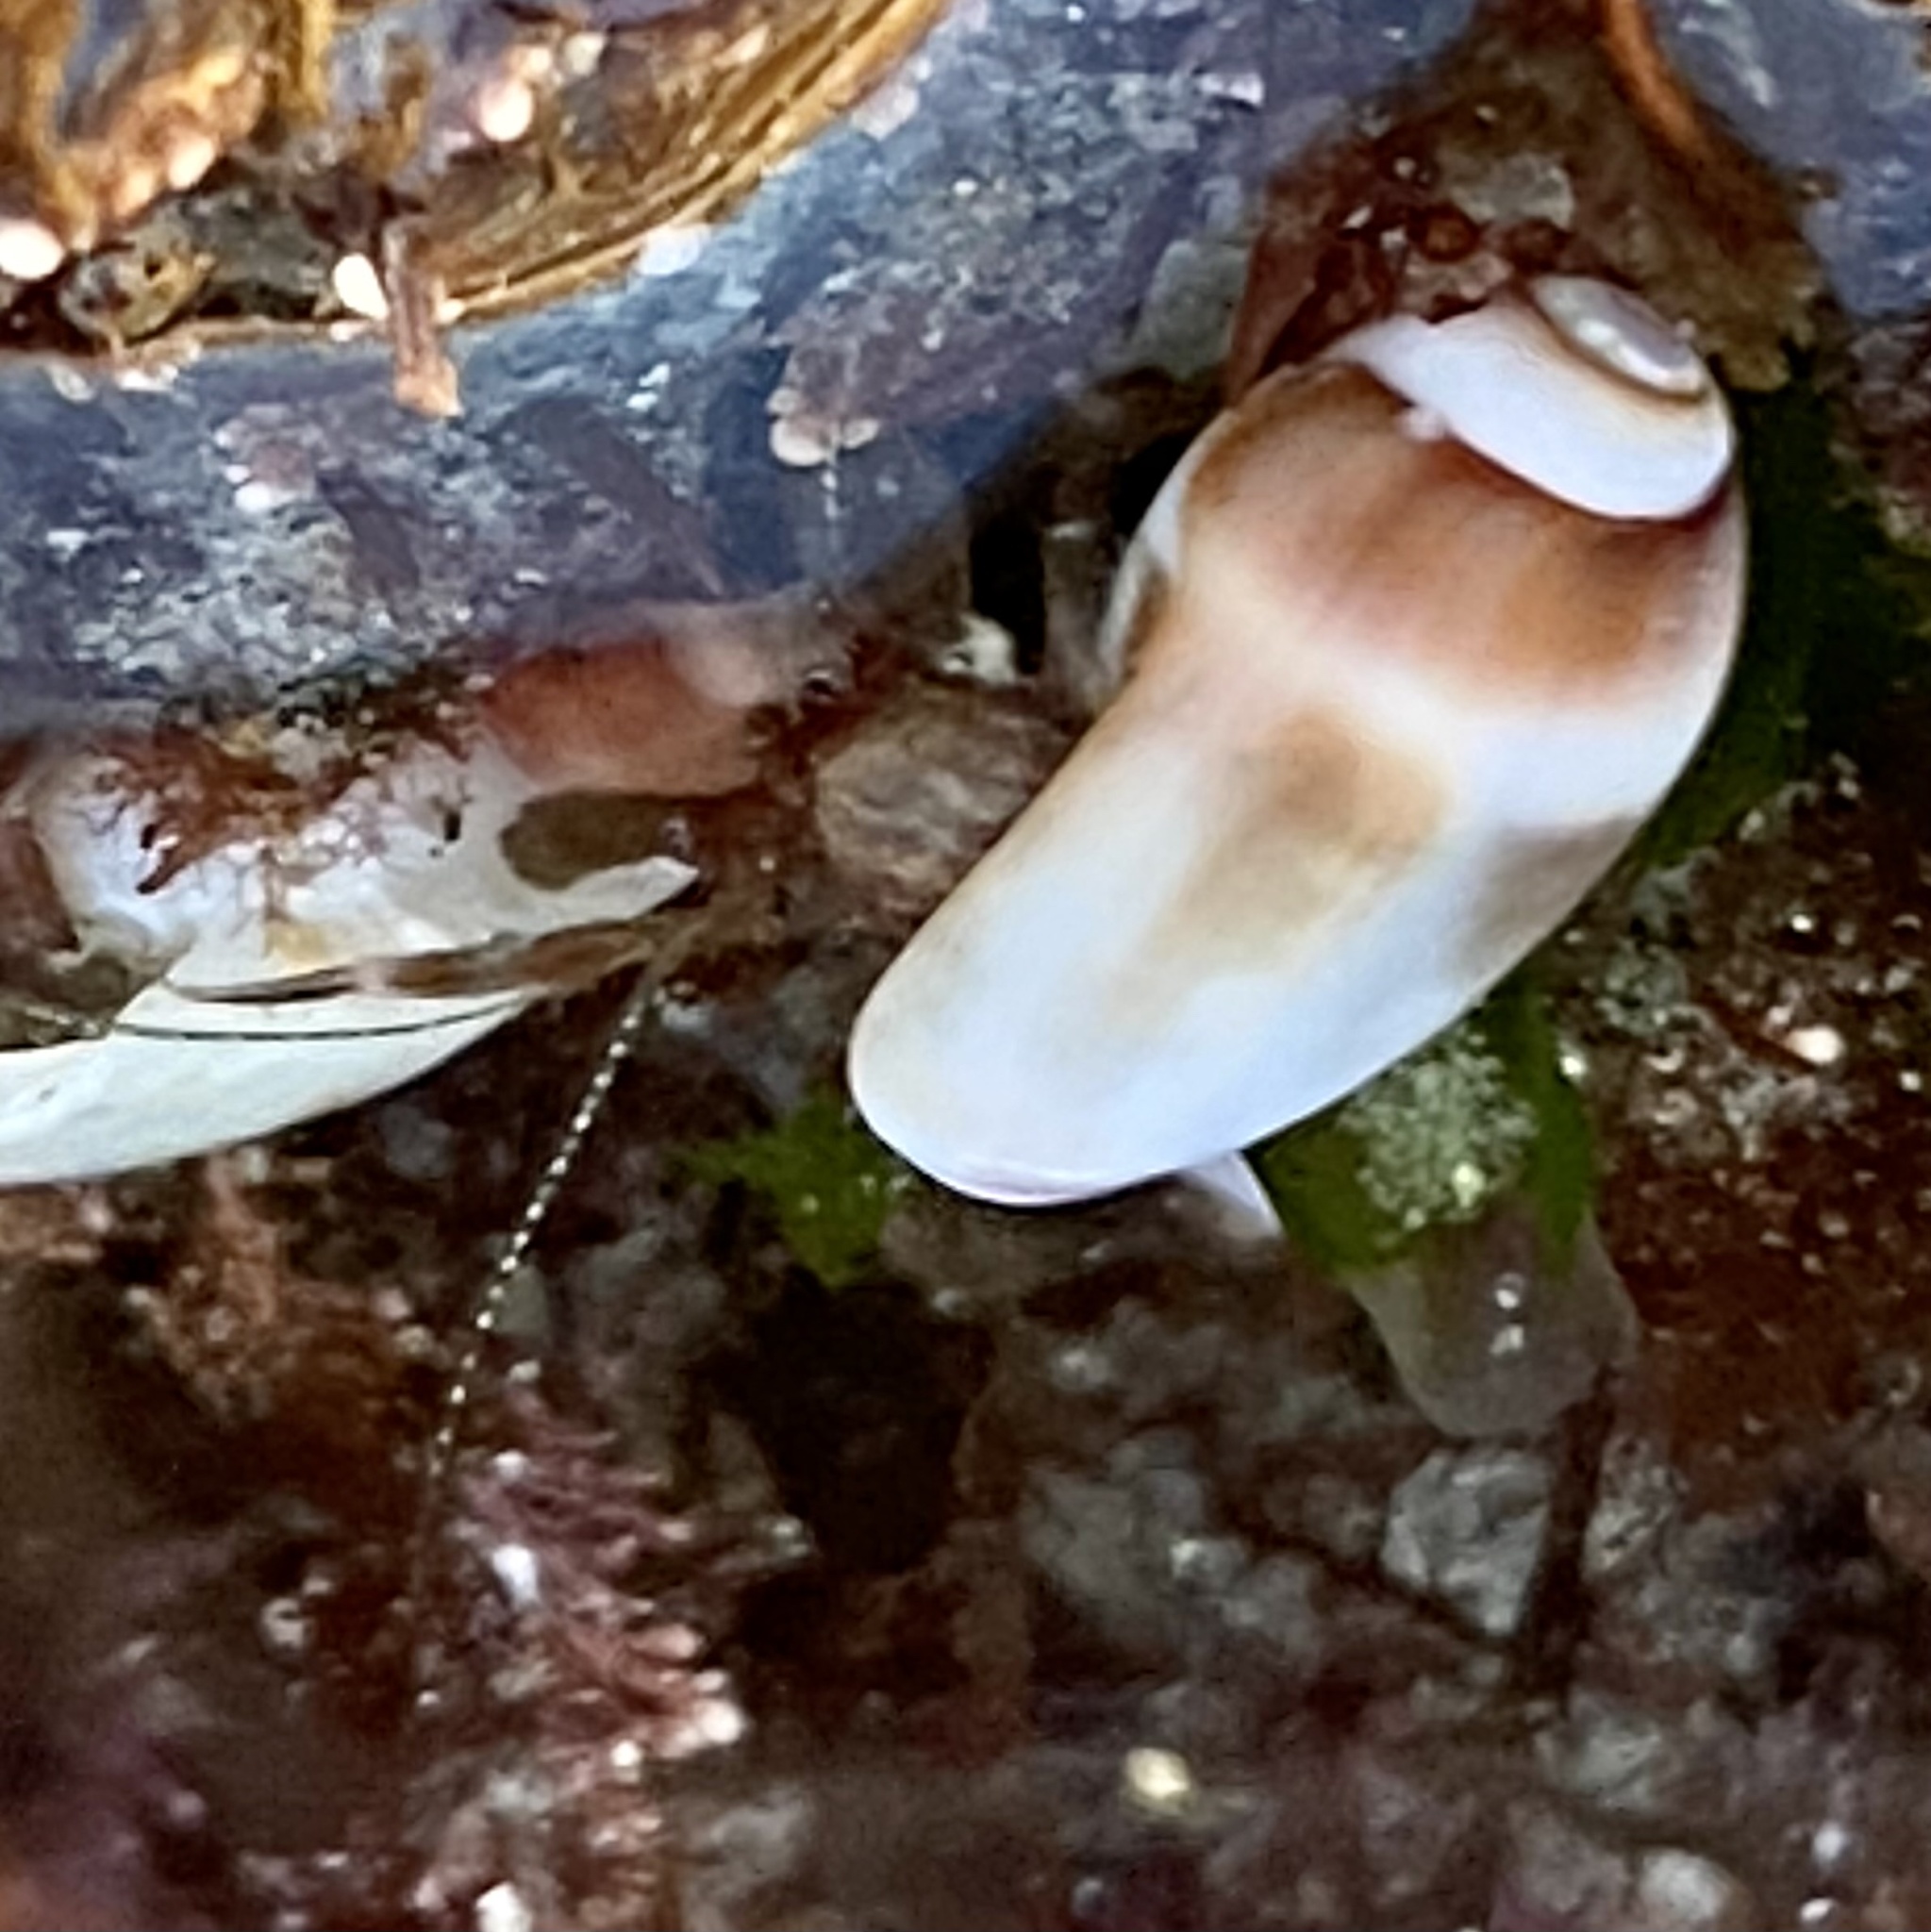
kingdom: Animalia
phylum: Arthropoda
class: Malacostraca
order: Decapoda
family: Paguridae
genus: Pagurus
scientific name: Pagurus venturensis
